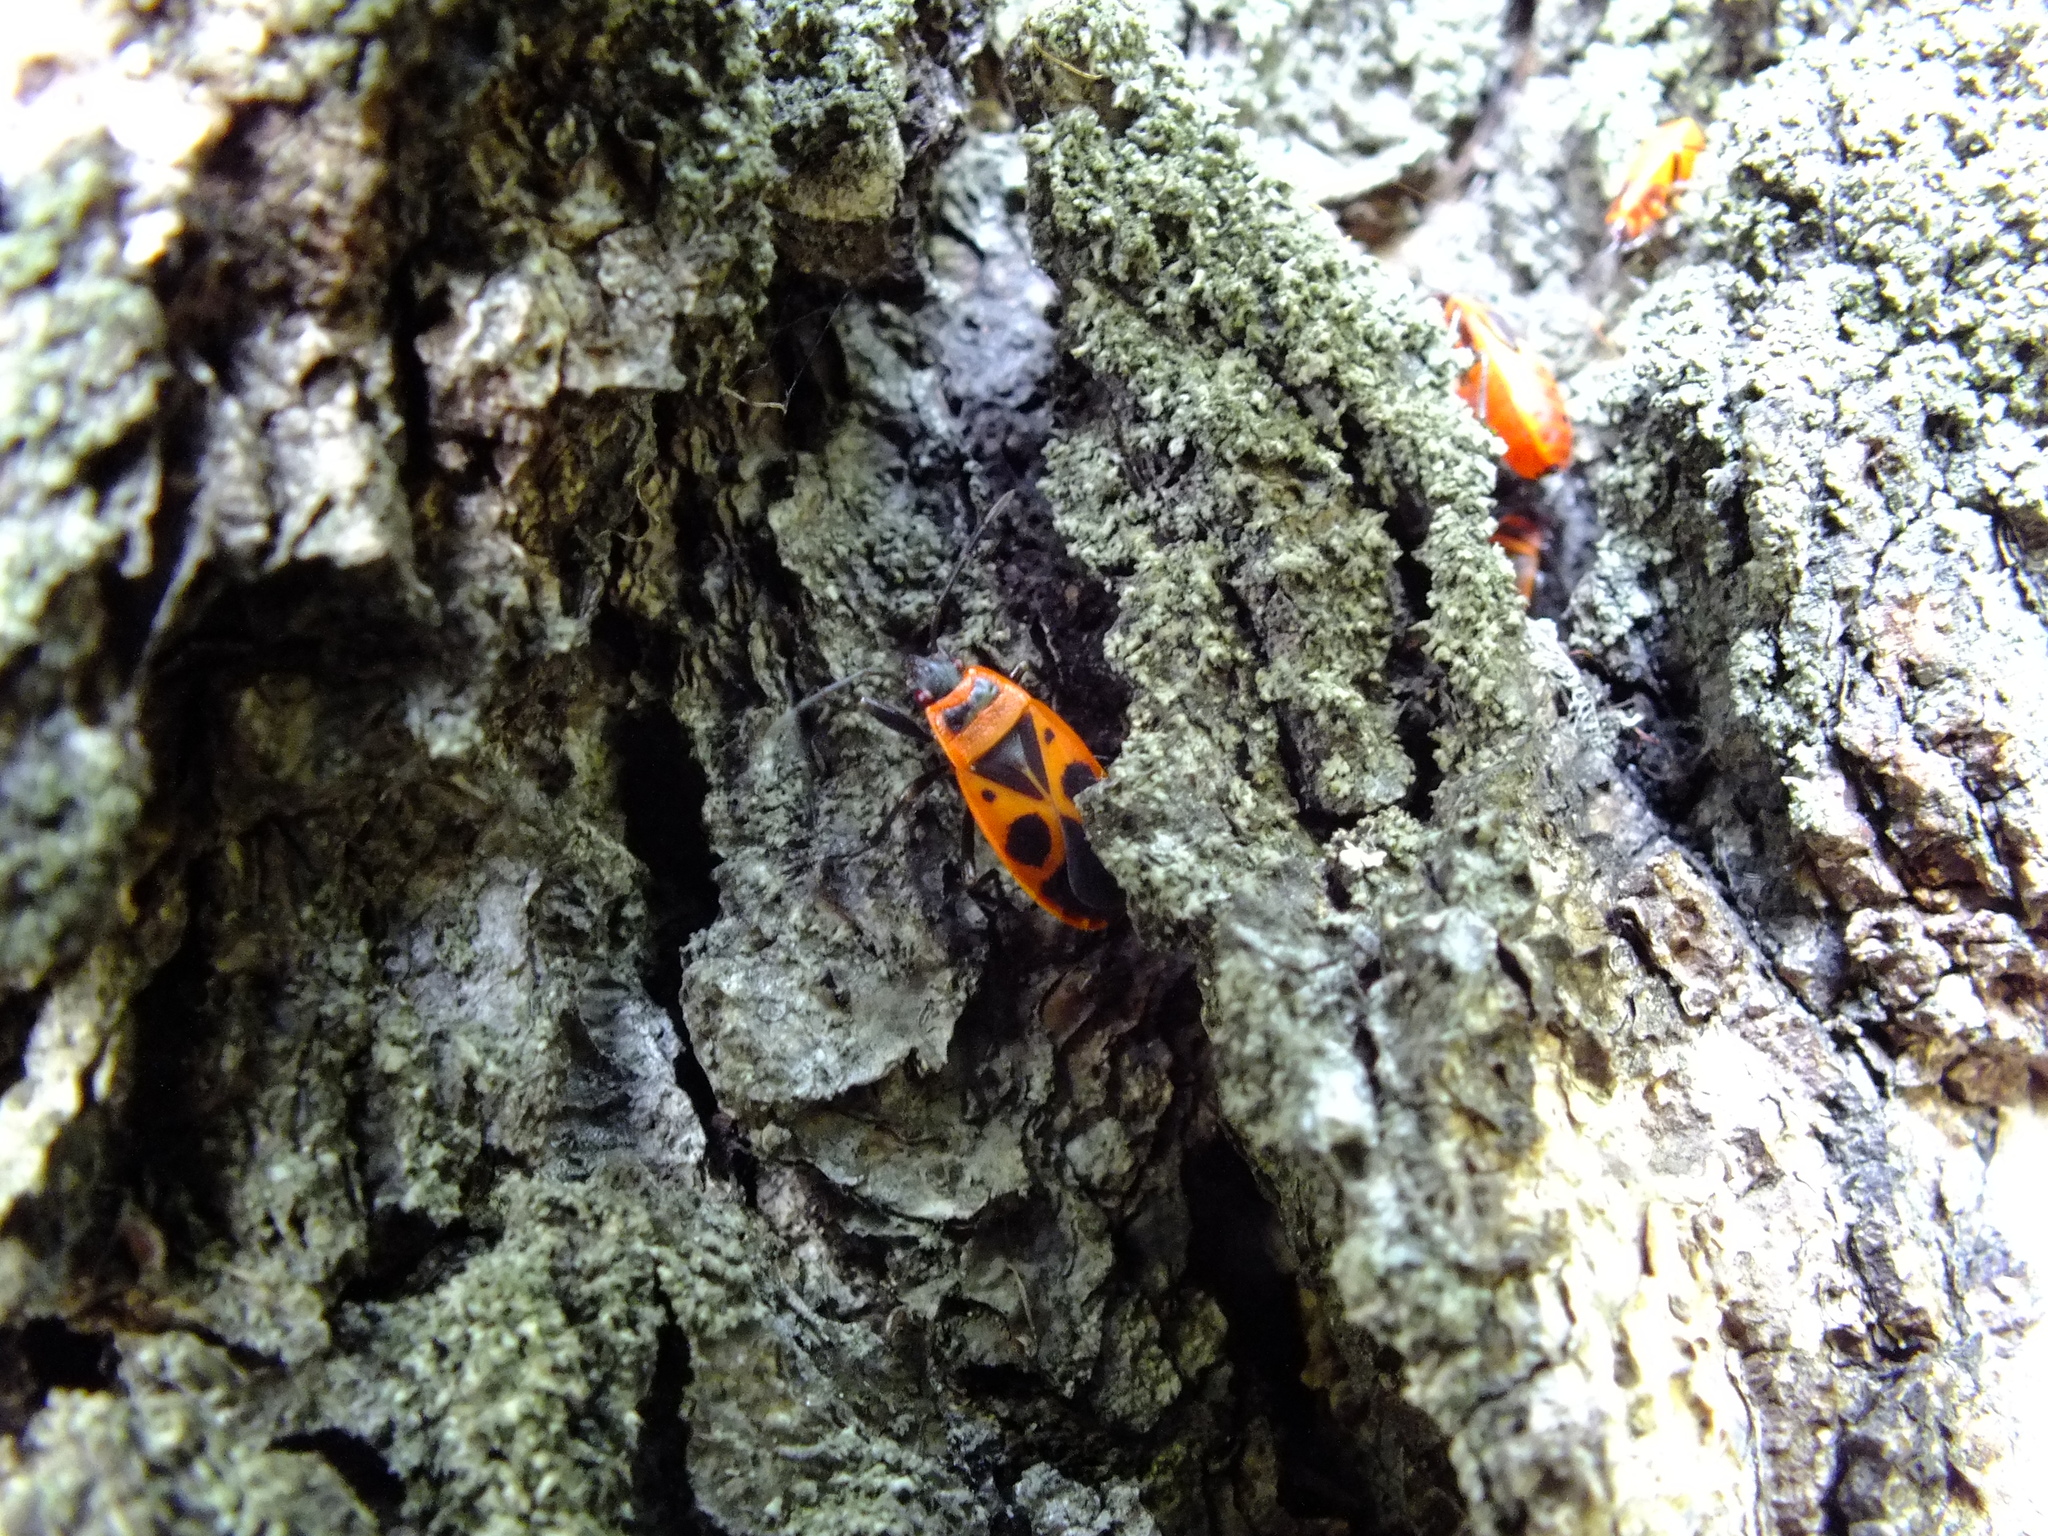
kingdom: Animalia
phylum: Arthropoda
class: Insecta
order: Hemiptera
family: Pyrrhocoridae
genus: Pyrrhocoris
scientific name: Pyrrhocoris apterus
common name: Firebug
